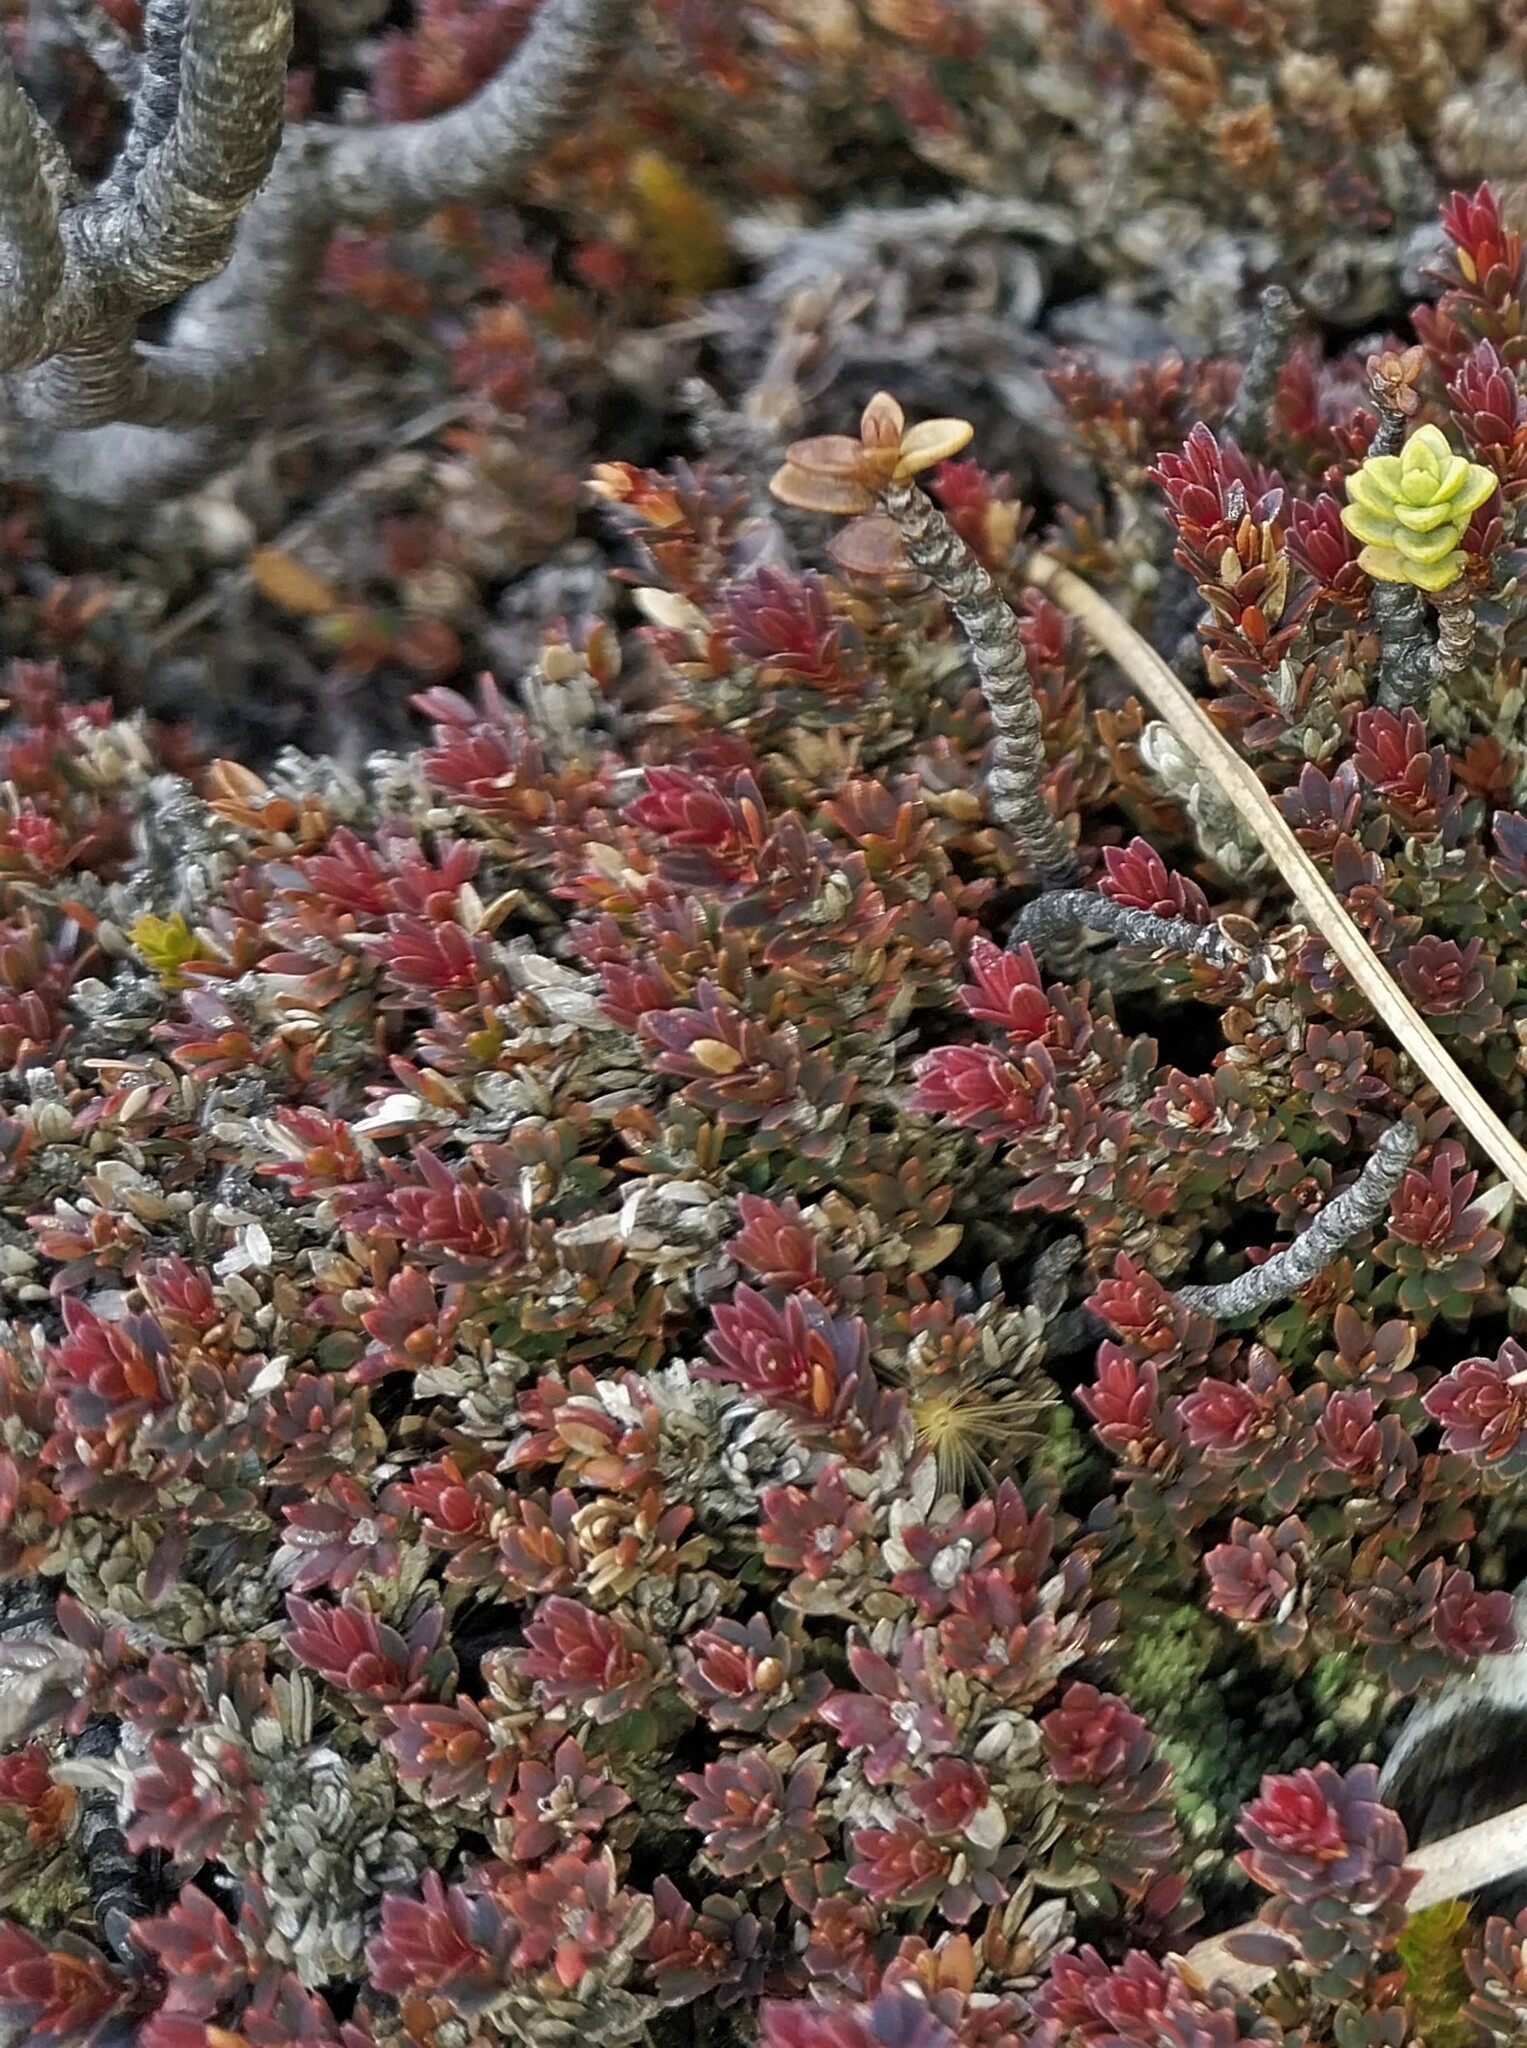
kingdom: Plantae
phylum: Tracheophyta
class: Magnoliopsida
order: Ericales
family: Ericaceae
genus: Pentachondra
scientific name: Pentachondra pumila
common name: Carpet-heath
